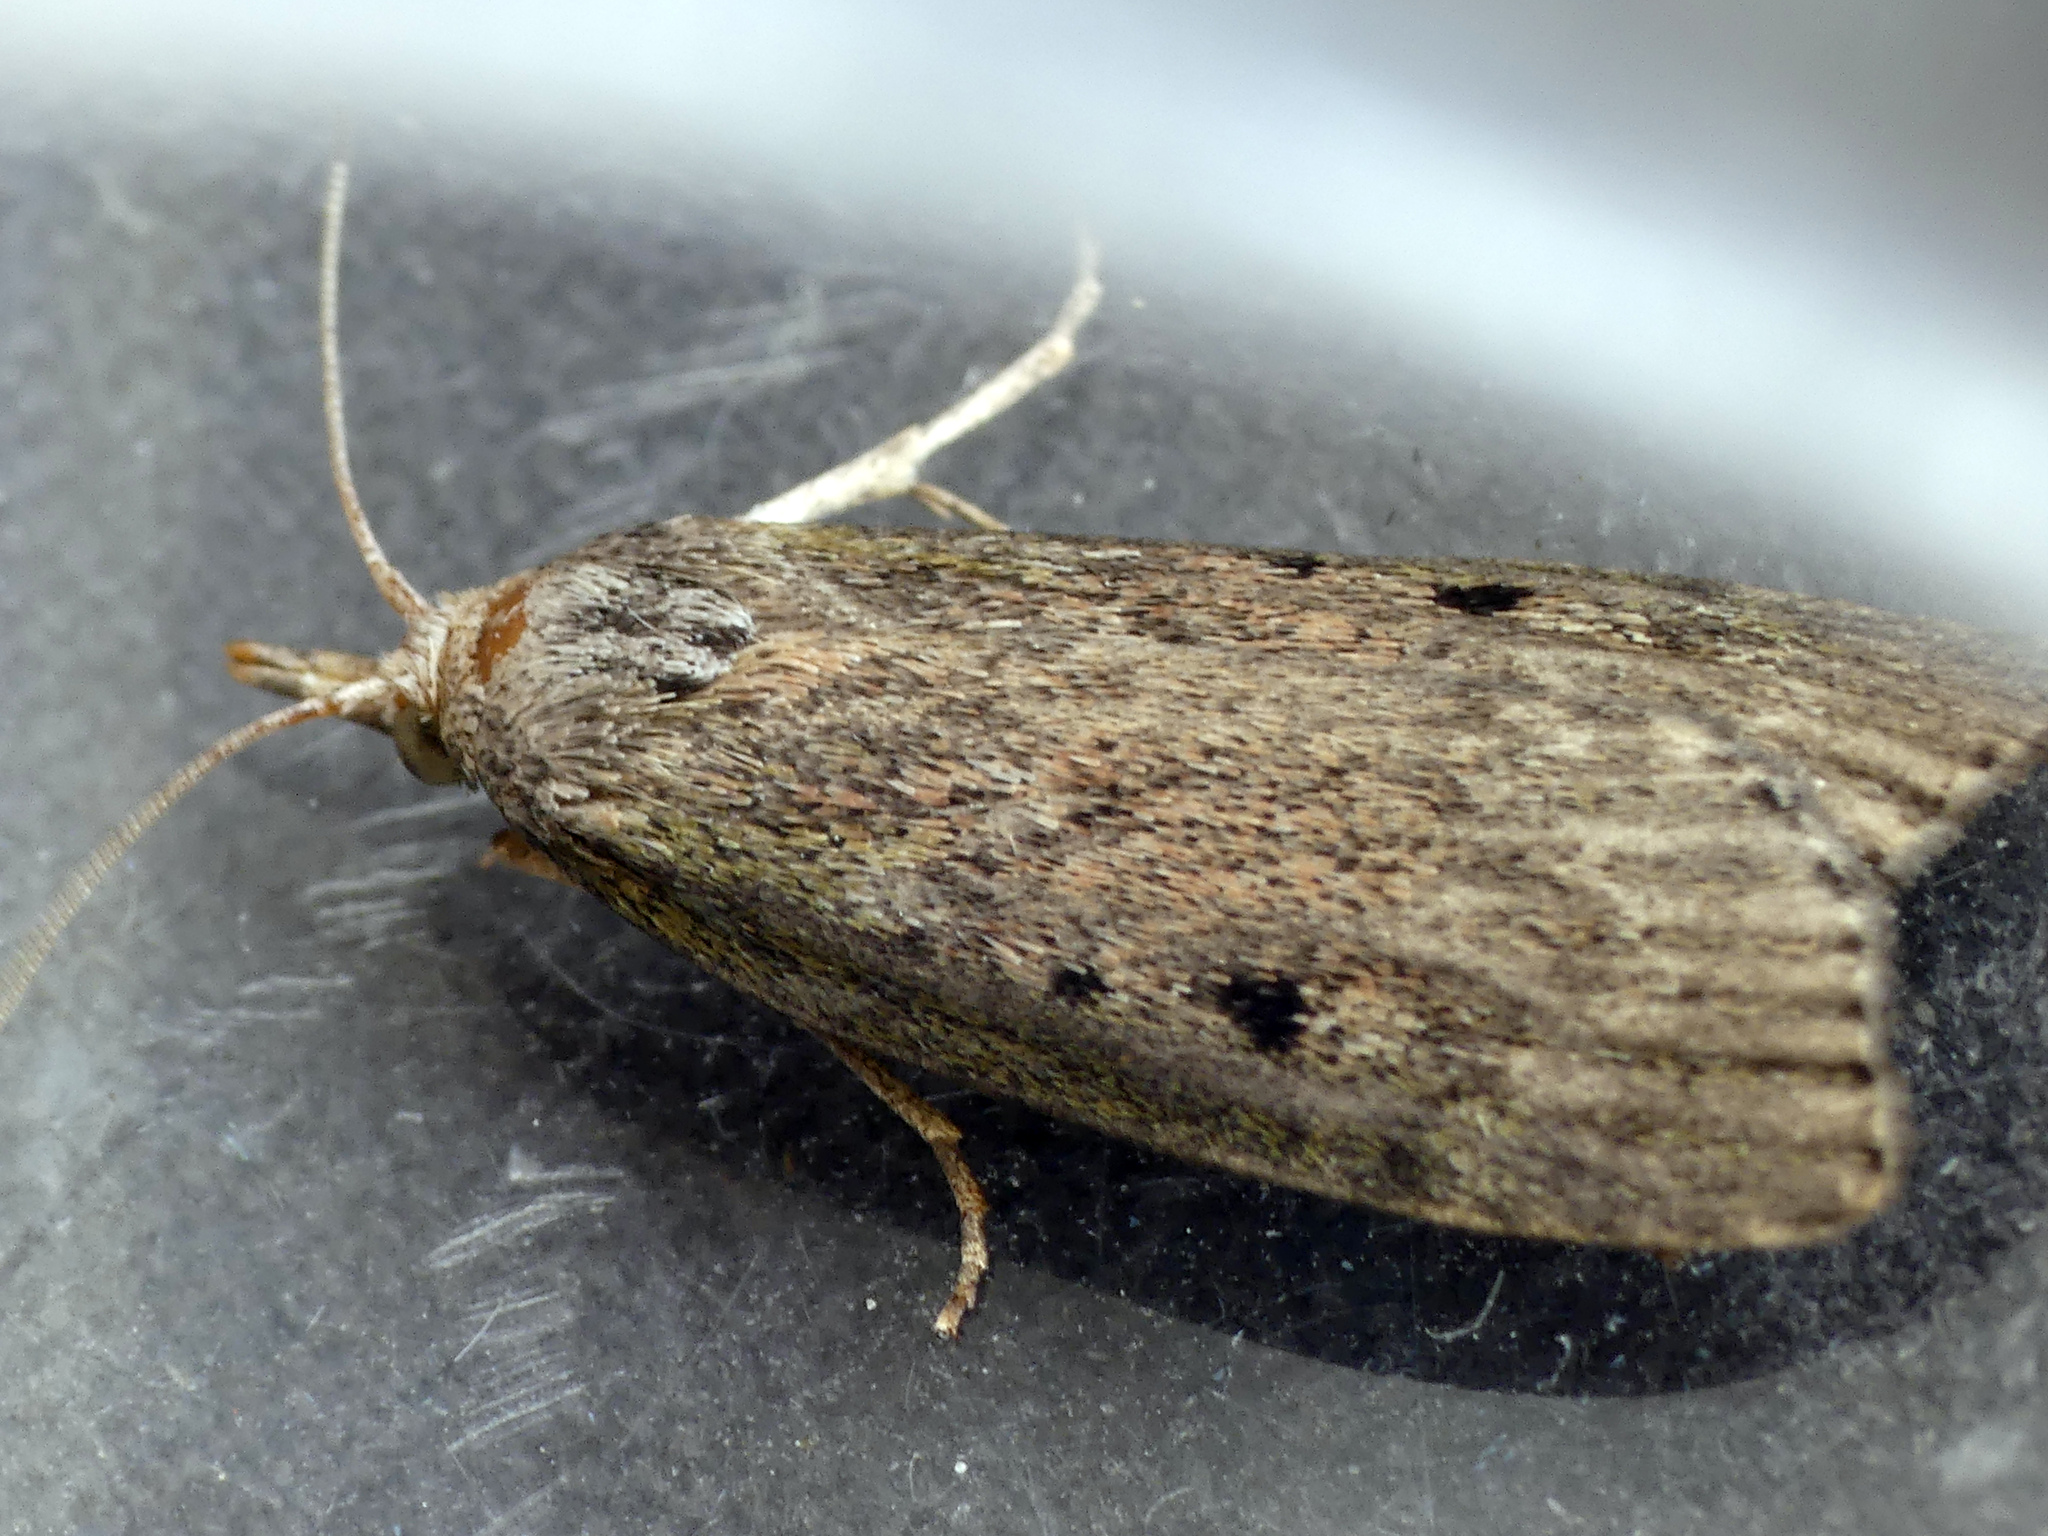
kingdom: Animalia
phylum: Arthropoda
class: Insecta
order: Lepidoptera
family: Pyralidae
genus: Aphomia
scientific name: Aphomia sociella
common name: Bee moth
